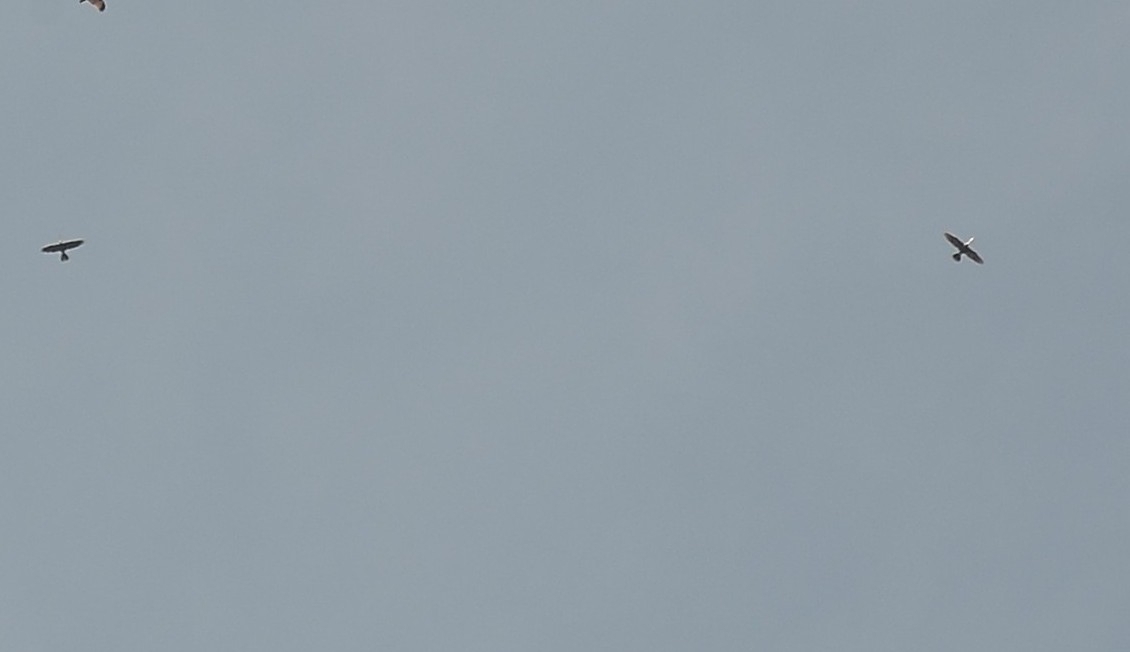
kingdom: Animalia
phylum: Chordata
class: Aves
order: Suliformes
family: Anhingidae
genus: Anhinga
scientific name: Anhinga melanogaster
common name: Oriental darter
